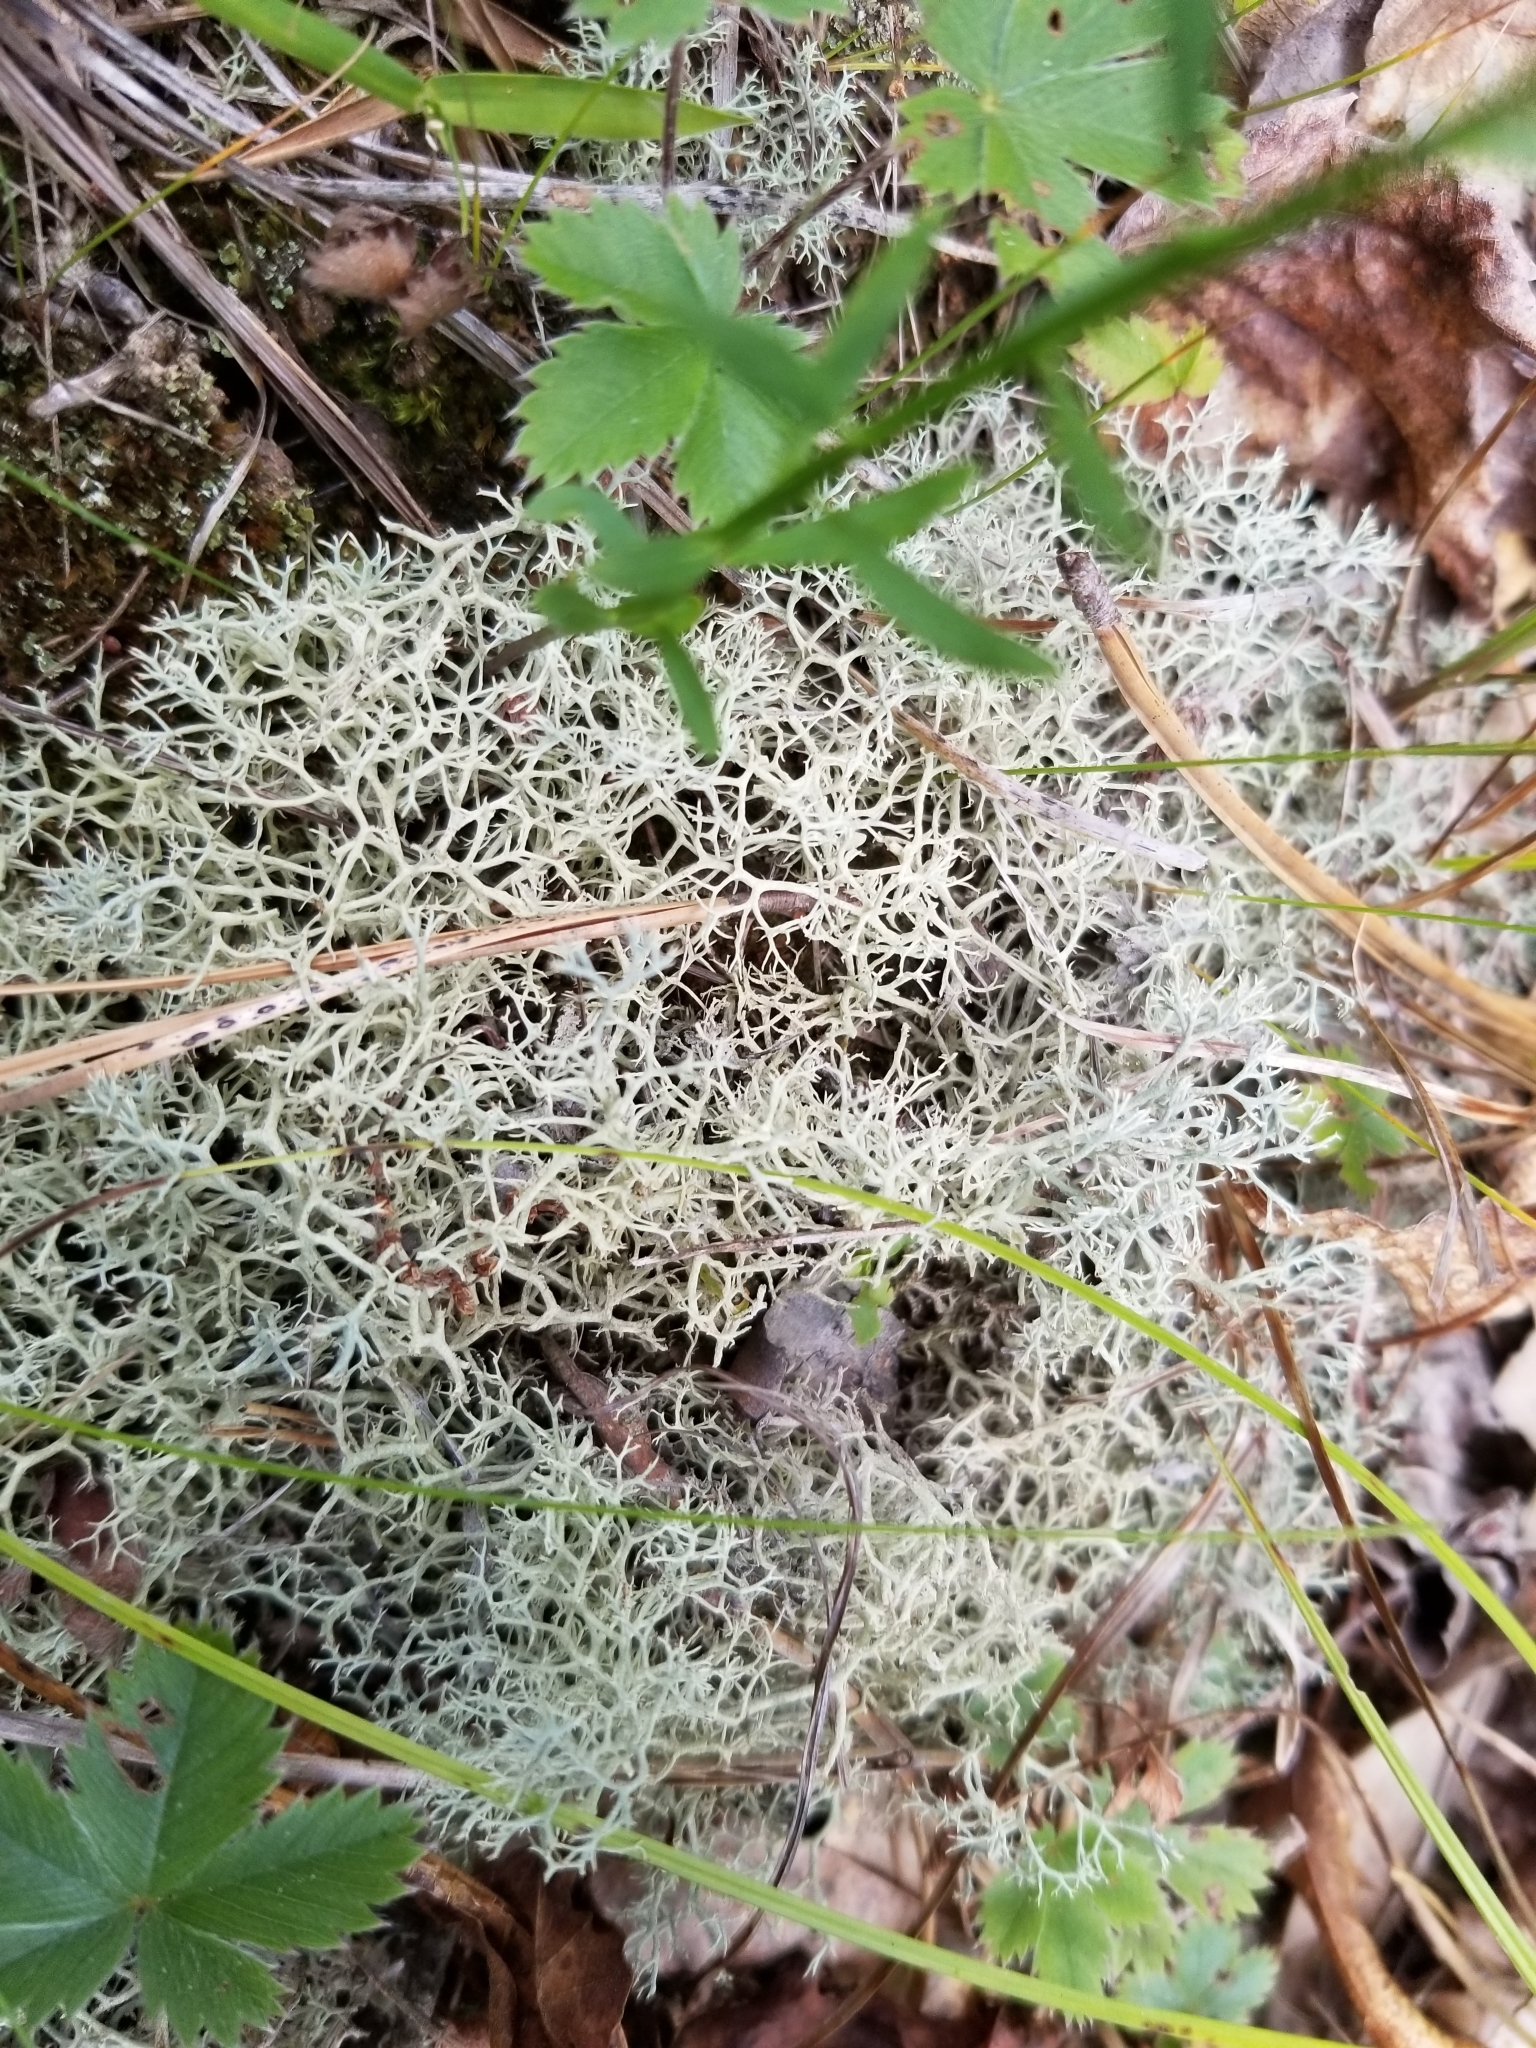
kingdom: Fungi
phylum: Ascomycota
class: Lecanoromycetes
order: Lecanorales
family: Cladoniaceae
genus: Cladonia
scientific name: Cladonia subtenuis
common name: Dixie reindeer lichen
